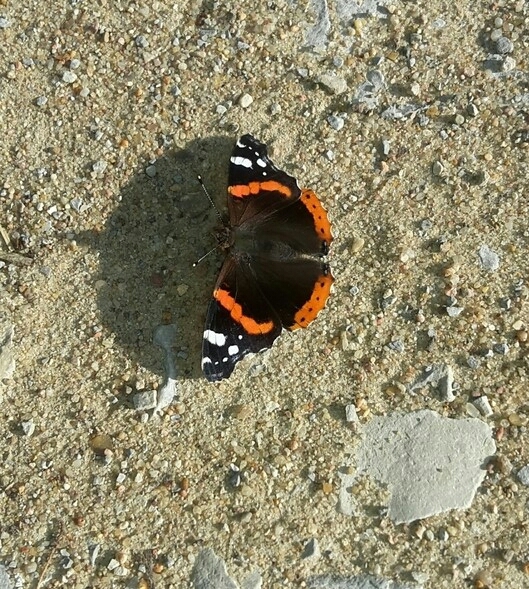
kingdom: Animalia
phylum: Arthropoda
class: Insecta
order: Lepidoptera
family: Nymphalidae
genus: Vanessa
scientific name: Vanessa atalanta
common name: Red admiral
